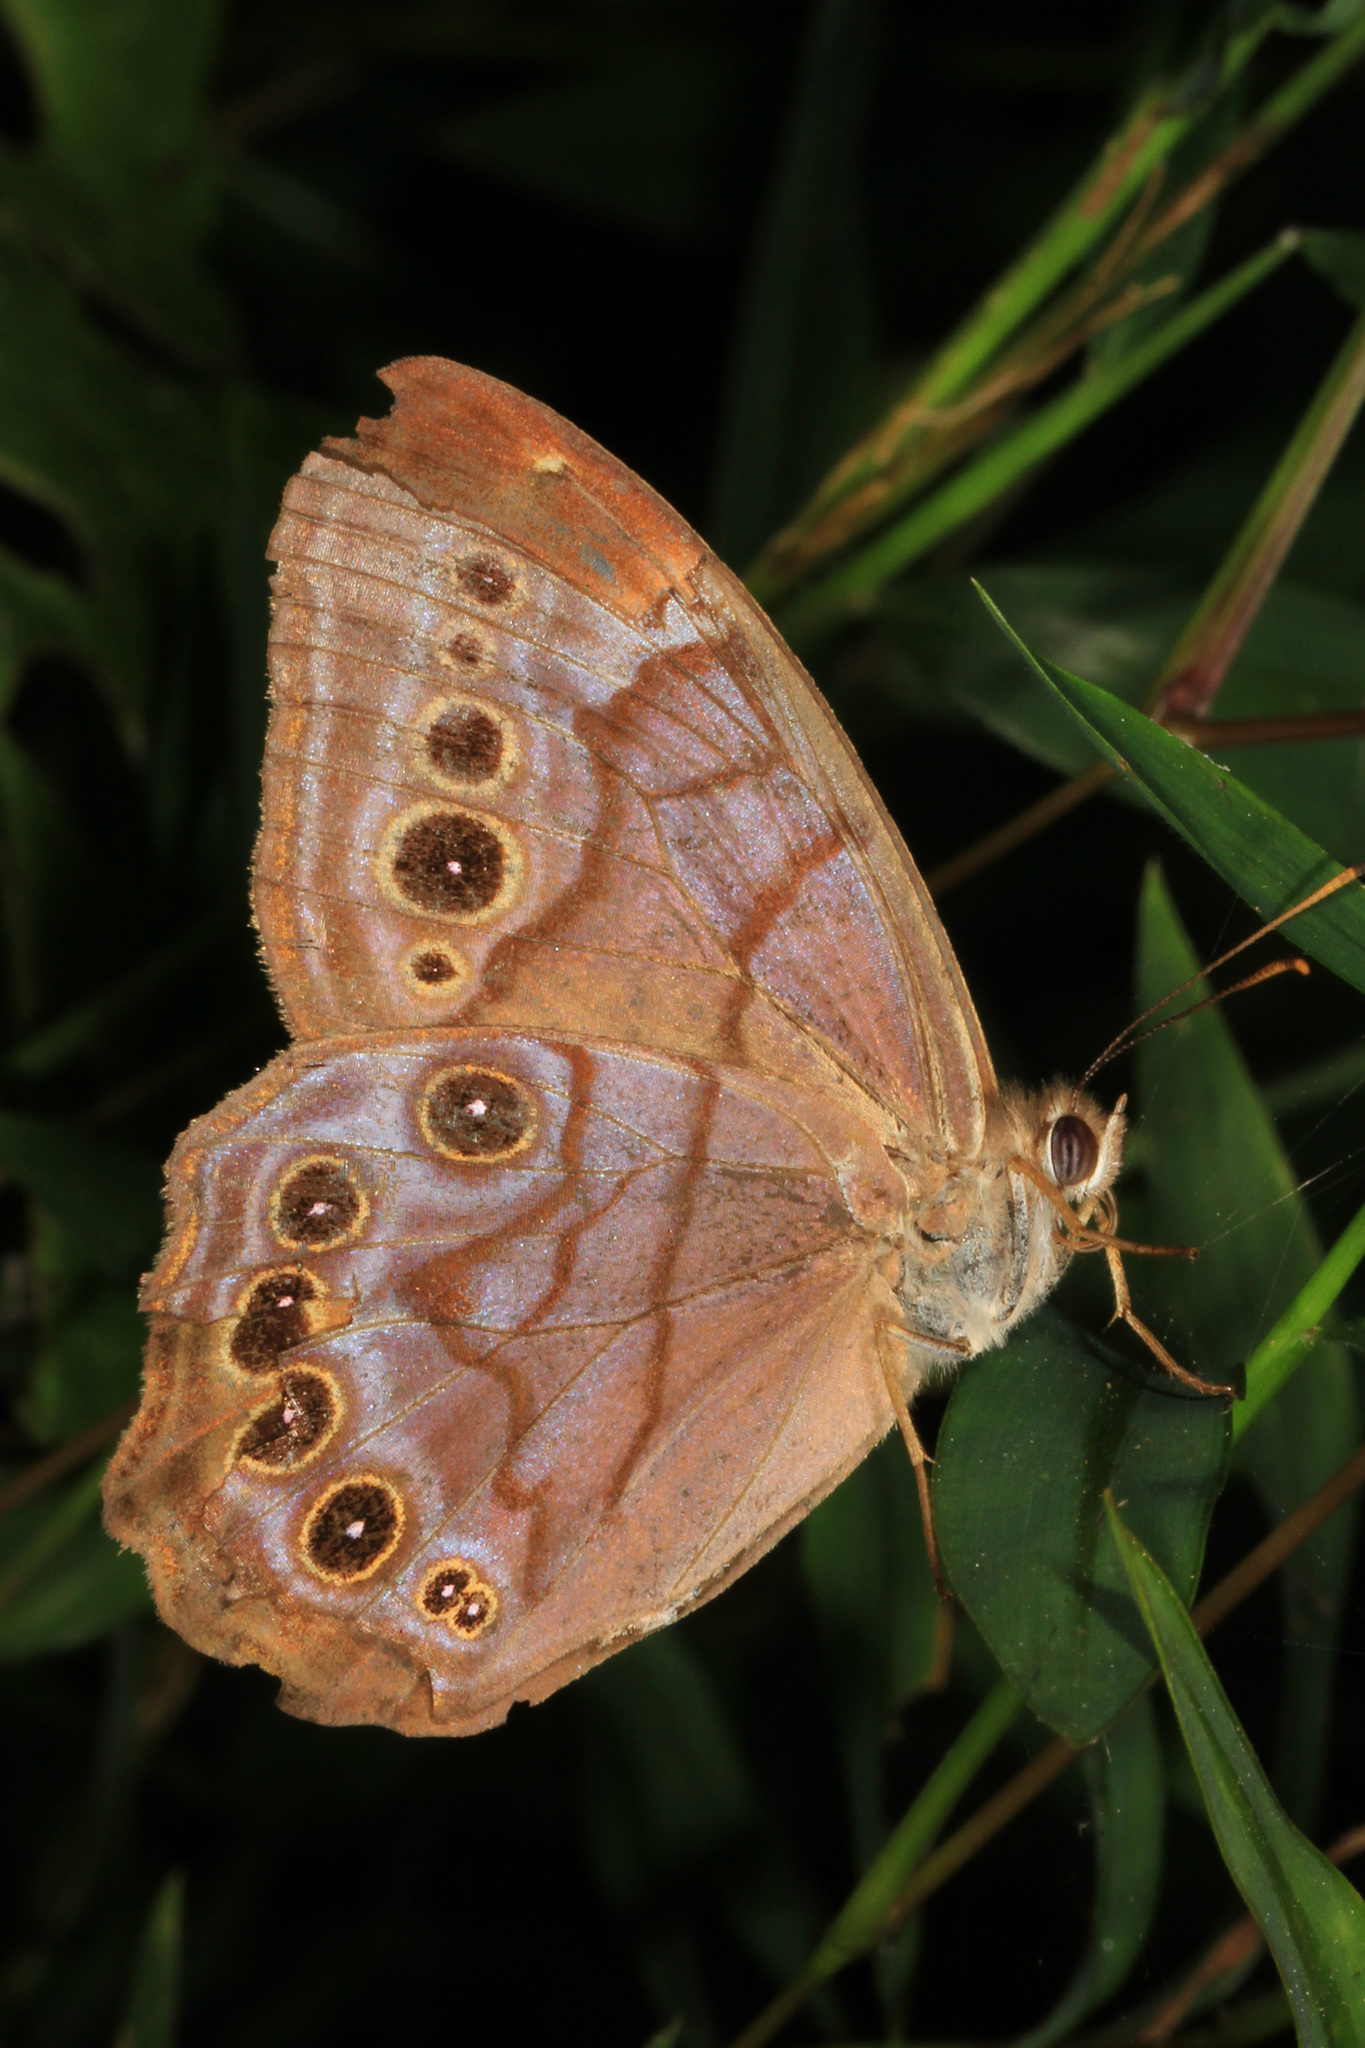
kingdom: Animalia
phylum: Arthropoda
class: Insecta
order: Lepidoptera
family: Nymphalidae
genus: Lethe
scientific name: Lethe anthedon
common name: Northern pearly-eye
